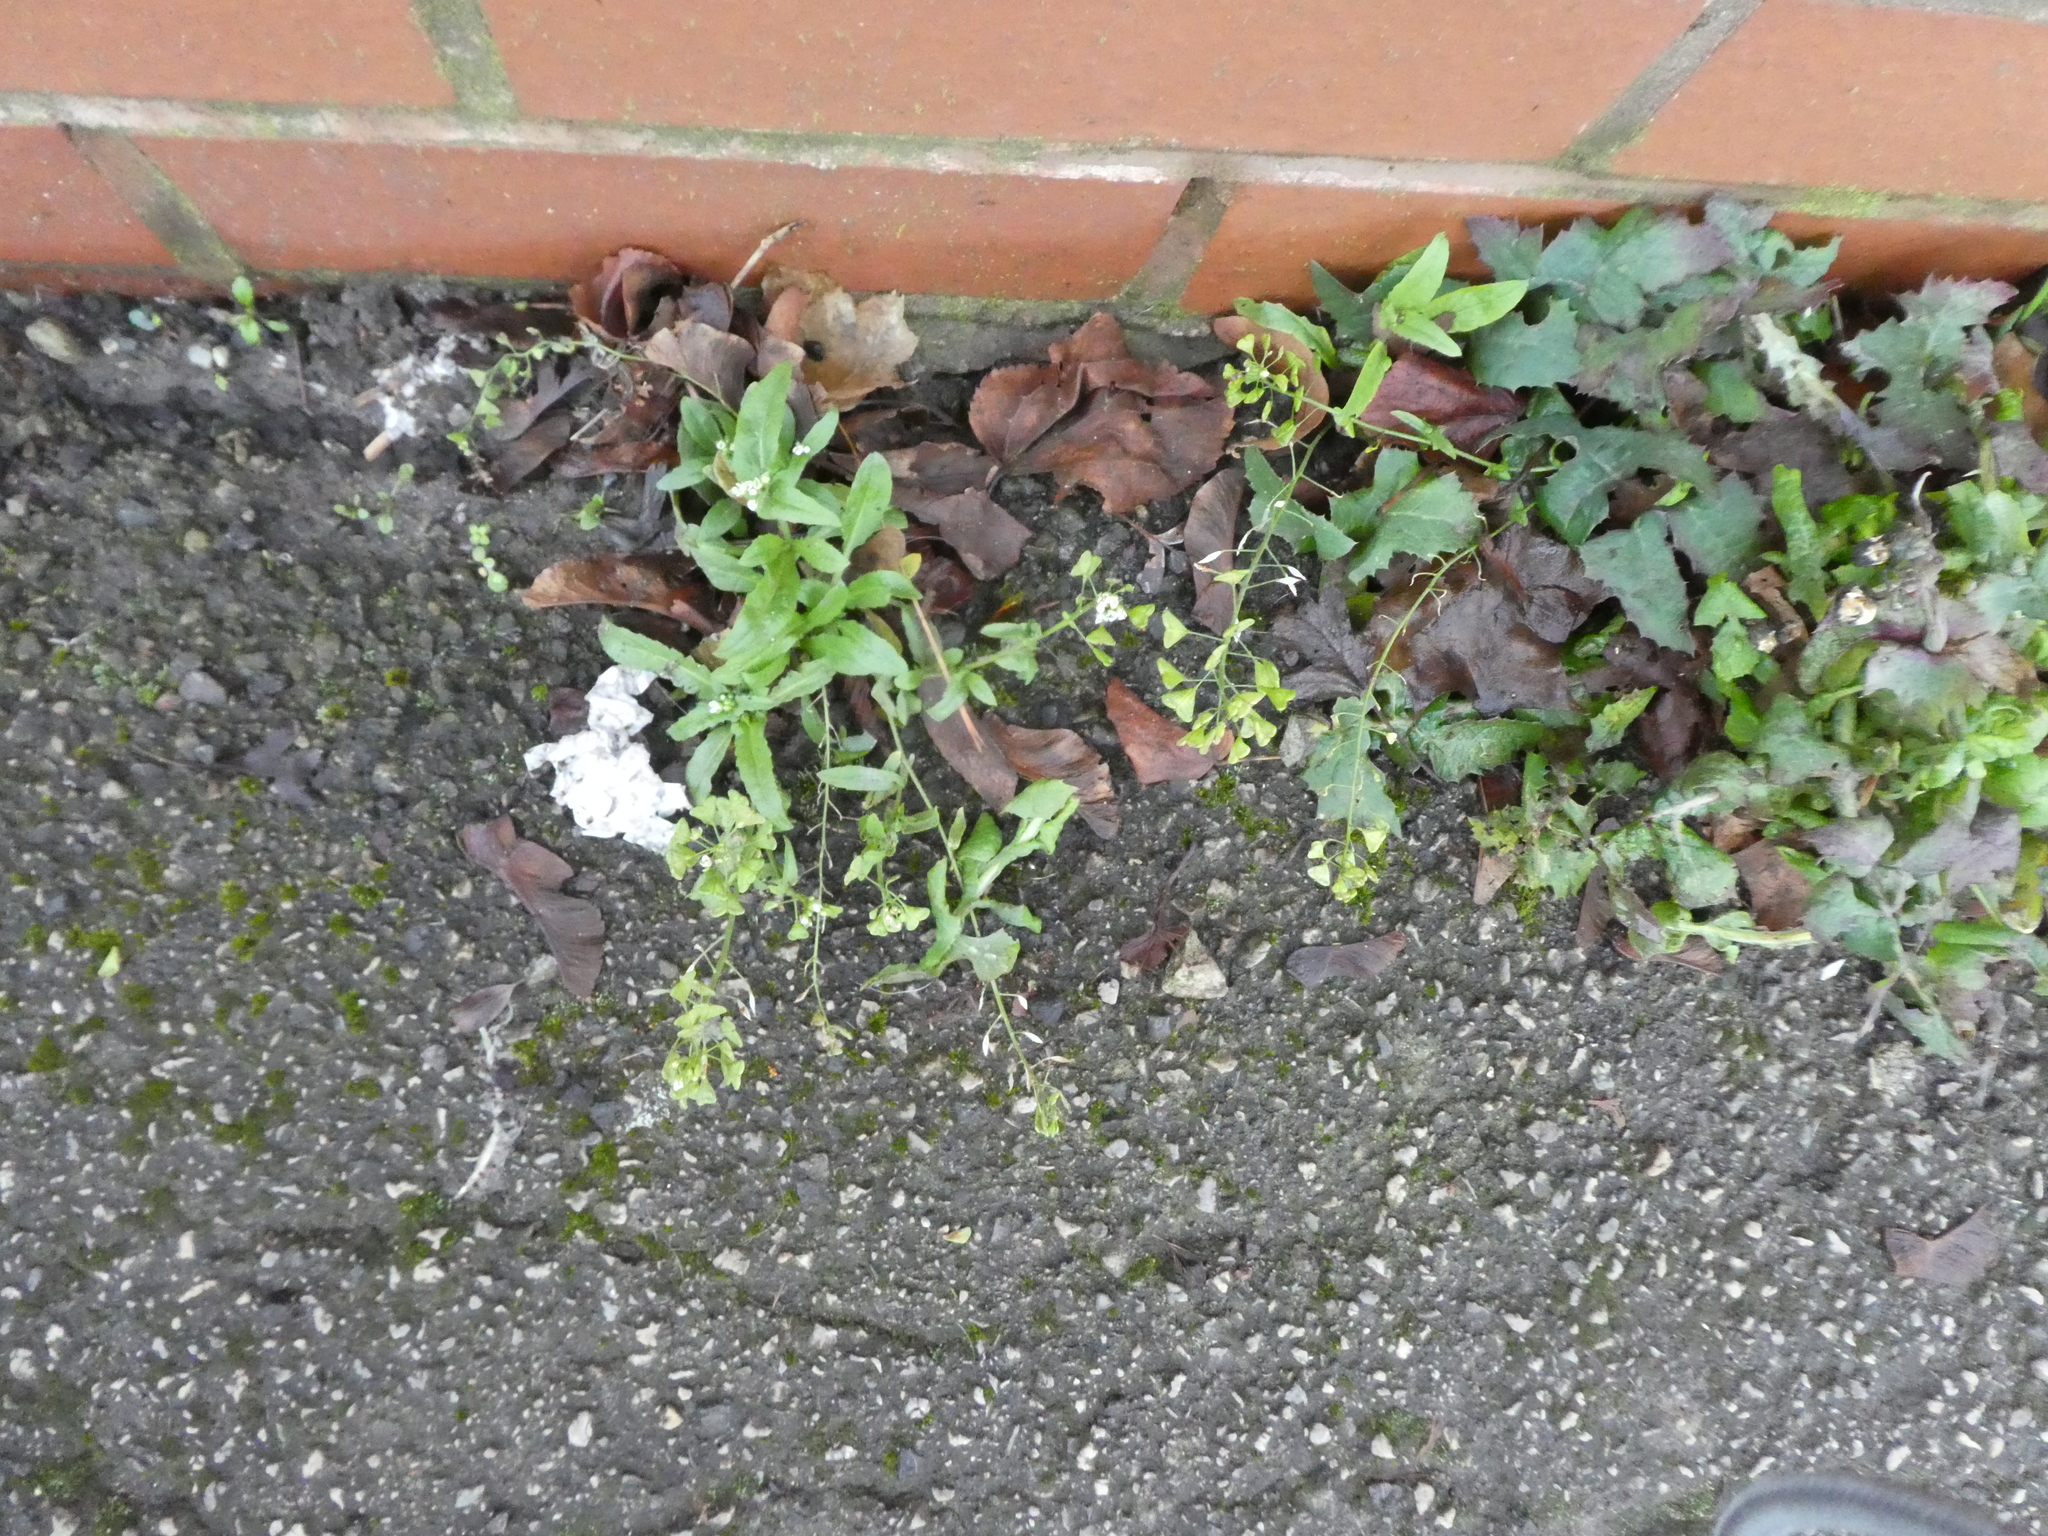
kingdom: Plantae
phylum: Tracheophyta
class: Magnoliopsida
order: Brassicales
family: Brassicaceae
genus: Capsella
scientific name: Capsella bursa-pastoris
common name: Shepherd's purse
